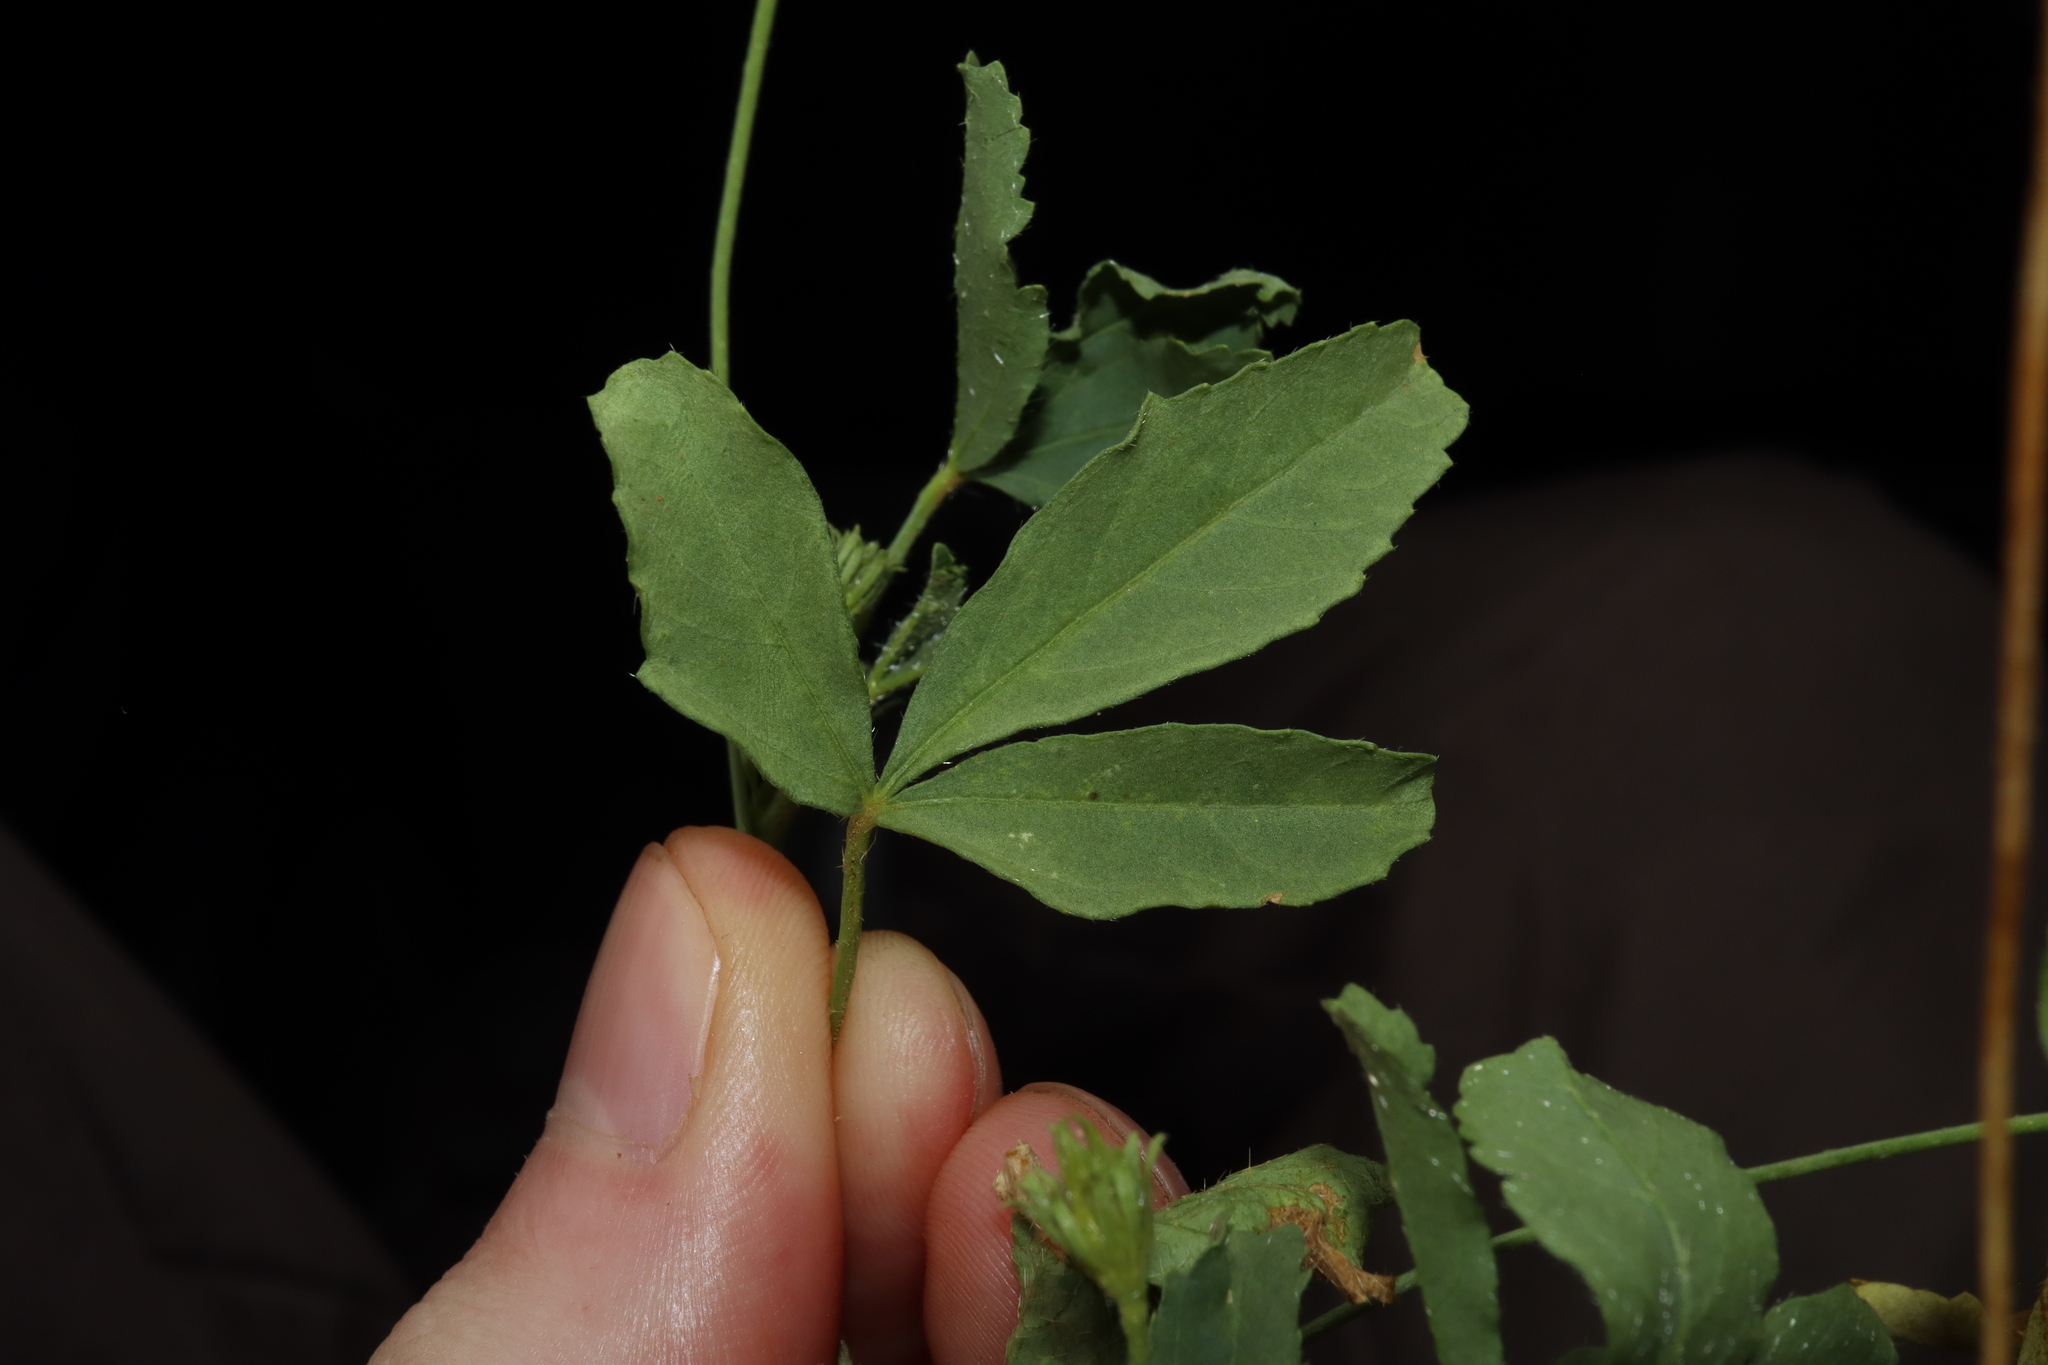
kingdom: Plantae
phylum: Tracheophyta
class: Magnoliopsida
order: Malvales
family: Malvaceae
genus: Hibiscus
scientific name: Hibiscus brachysiphonius
